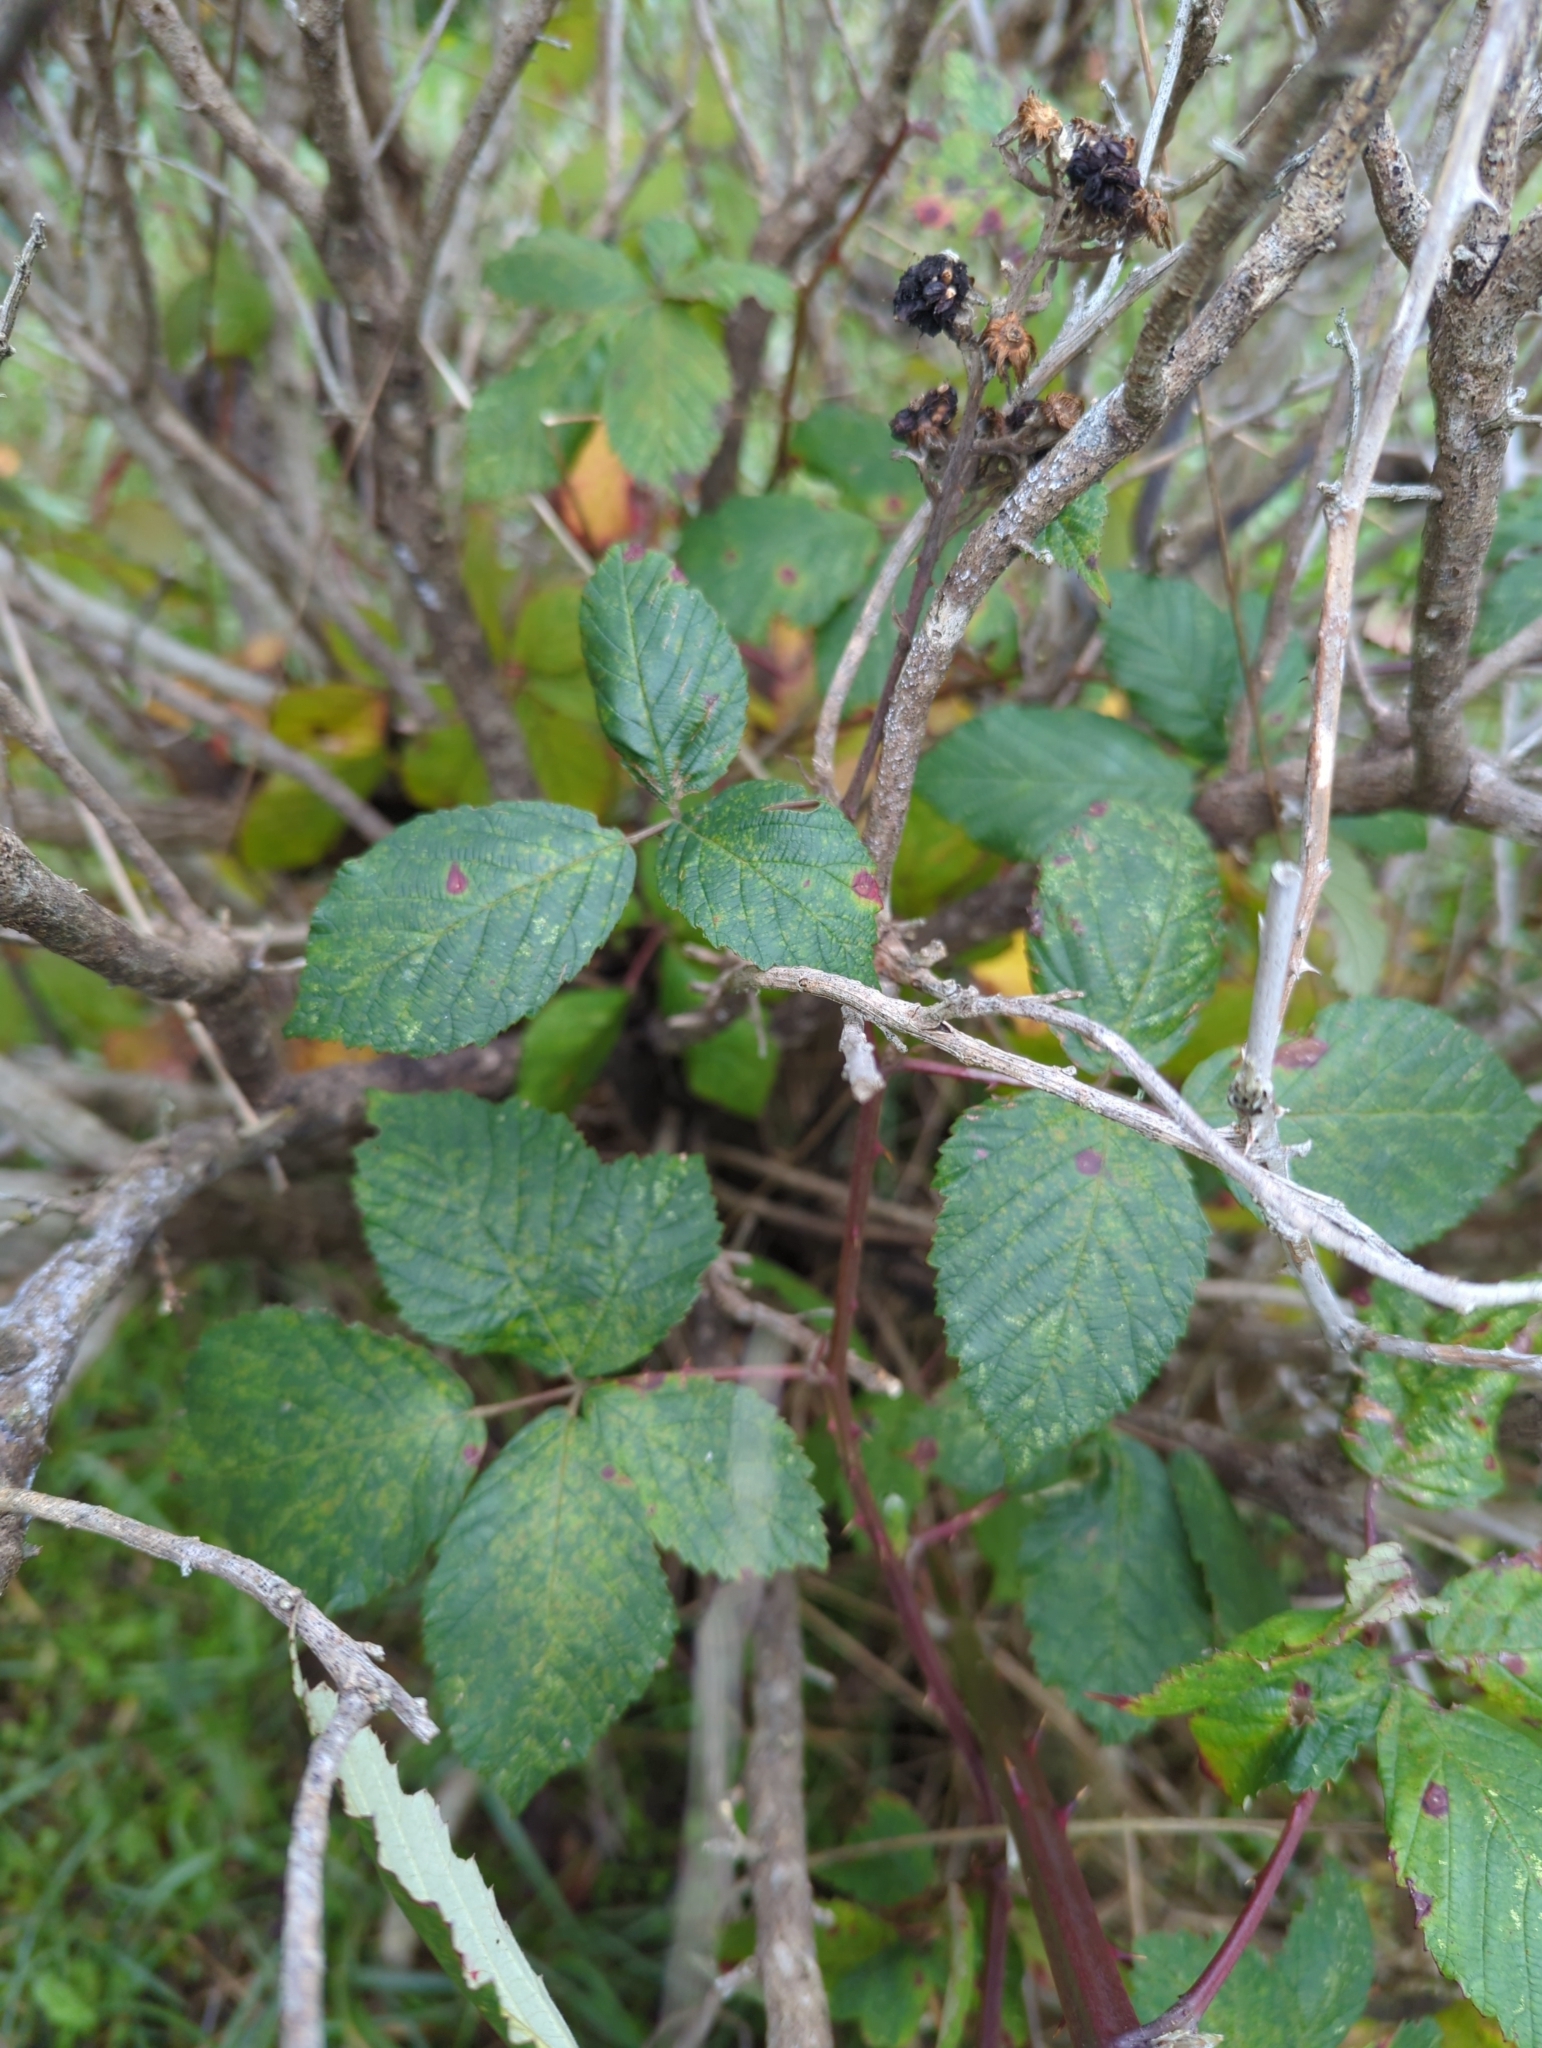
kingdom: Plantae
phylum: Tracheophyta
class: Magnoliopsida
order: Rosales
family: Rosaceae
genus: Rubus
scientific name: Rubus
